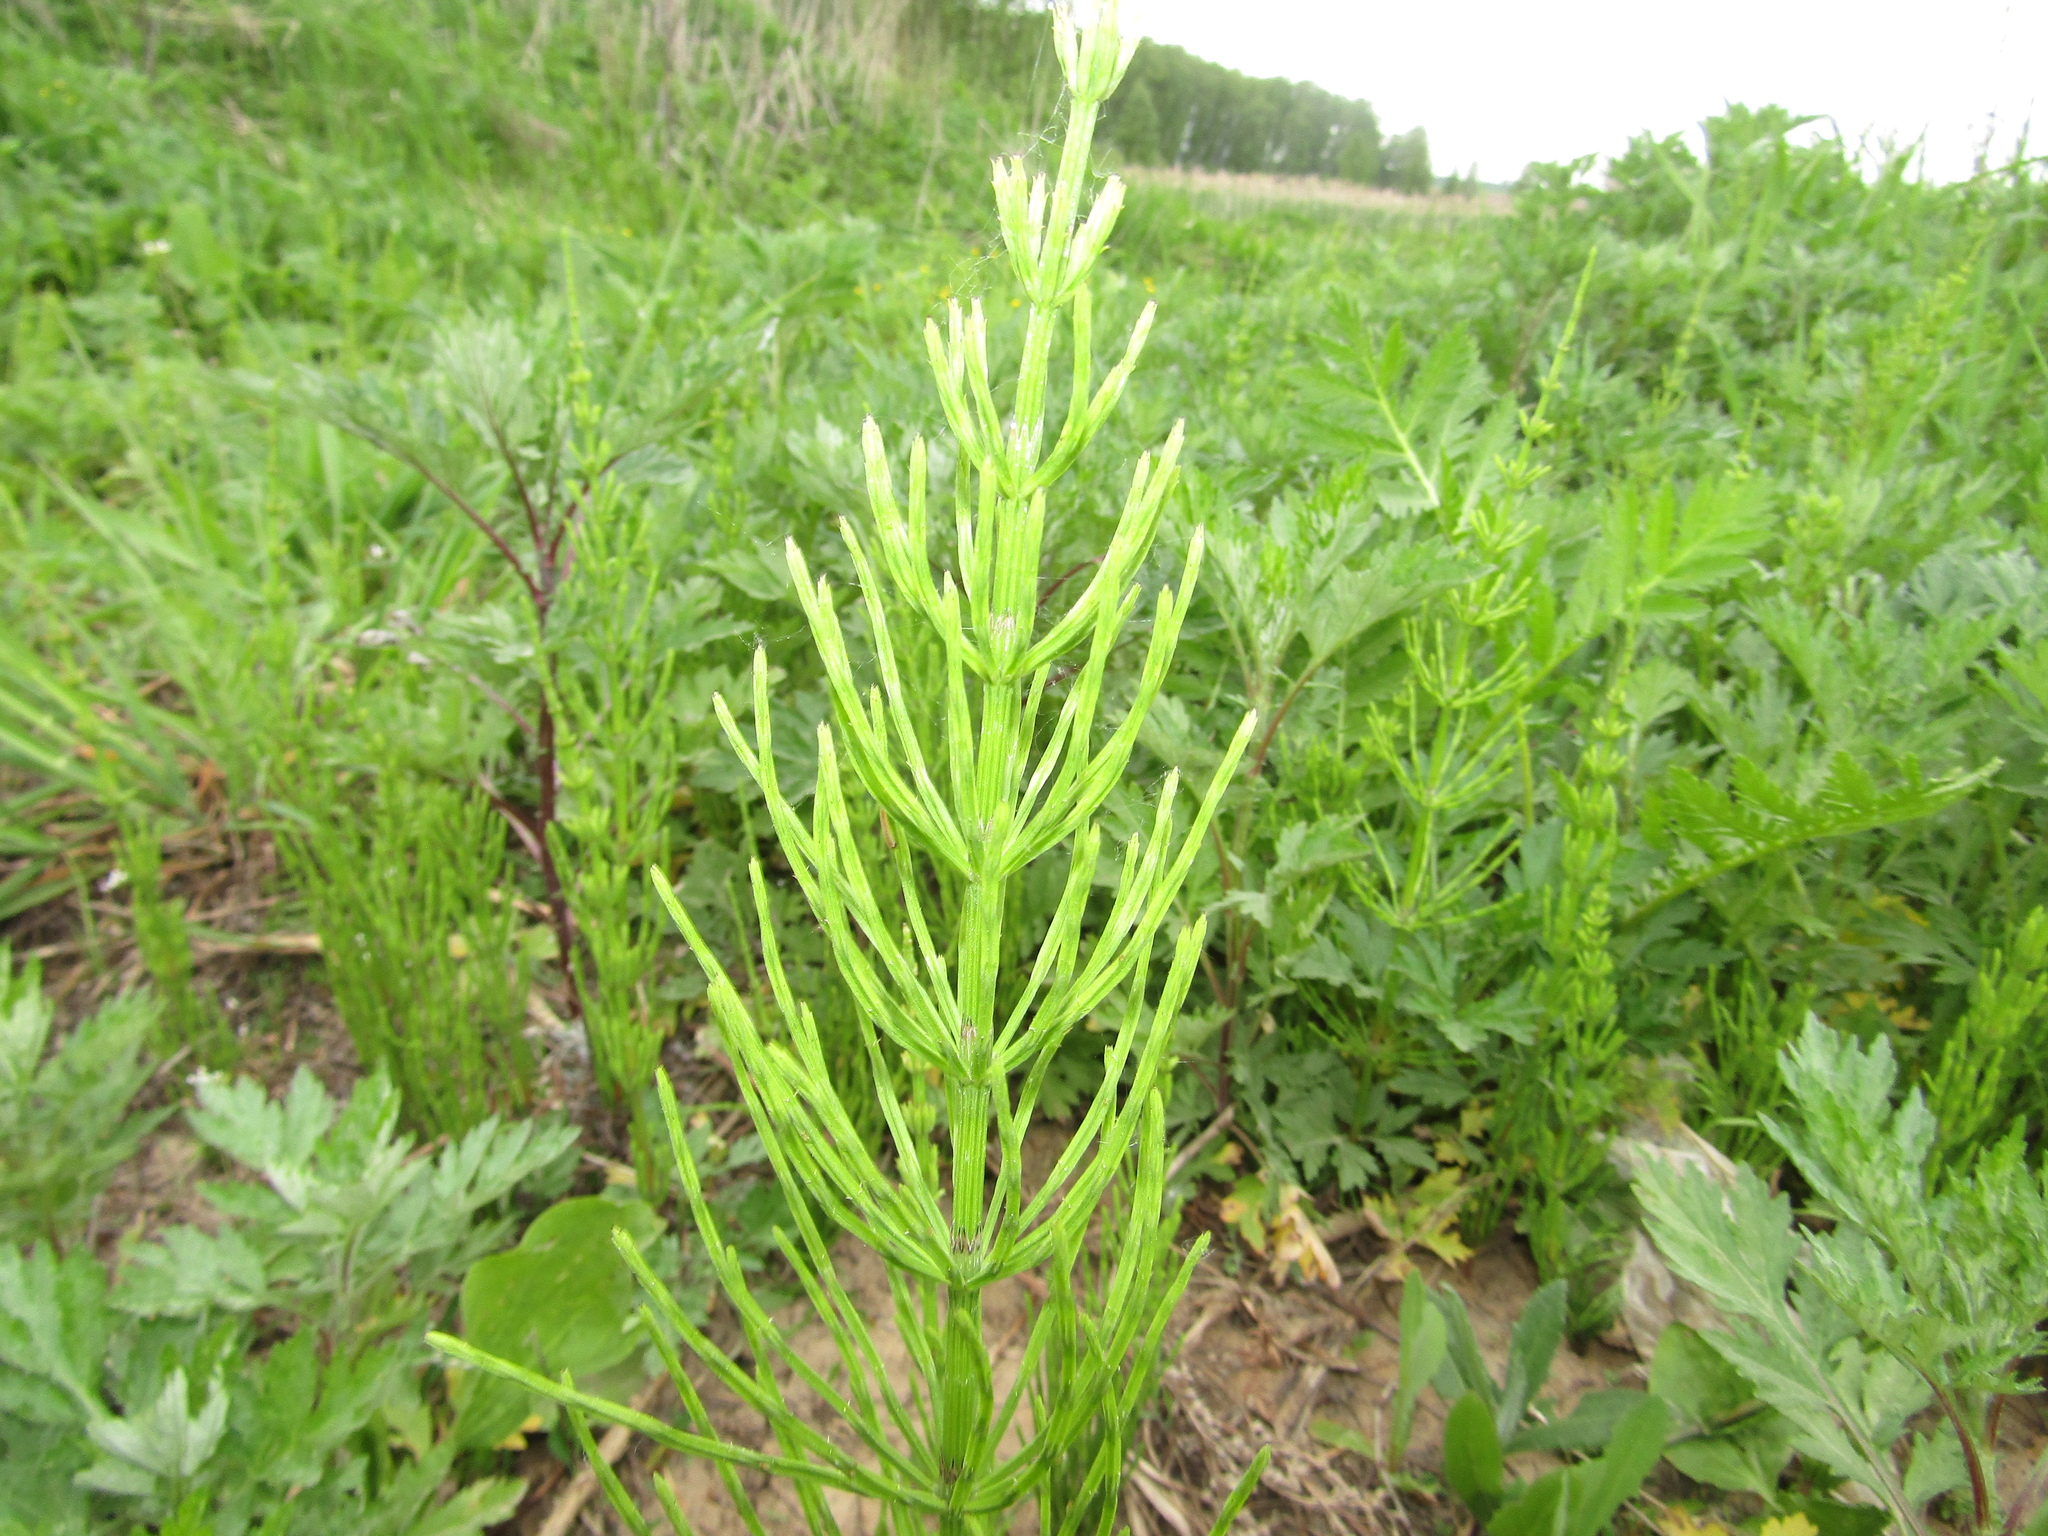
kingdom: Plantae
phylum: Tracheophyta
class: Polypodiopsida
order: Equisetales
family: Equisetaceae
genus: Equisetum
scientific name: Equisetum arvense
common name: Field horsetail
